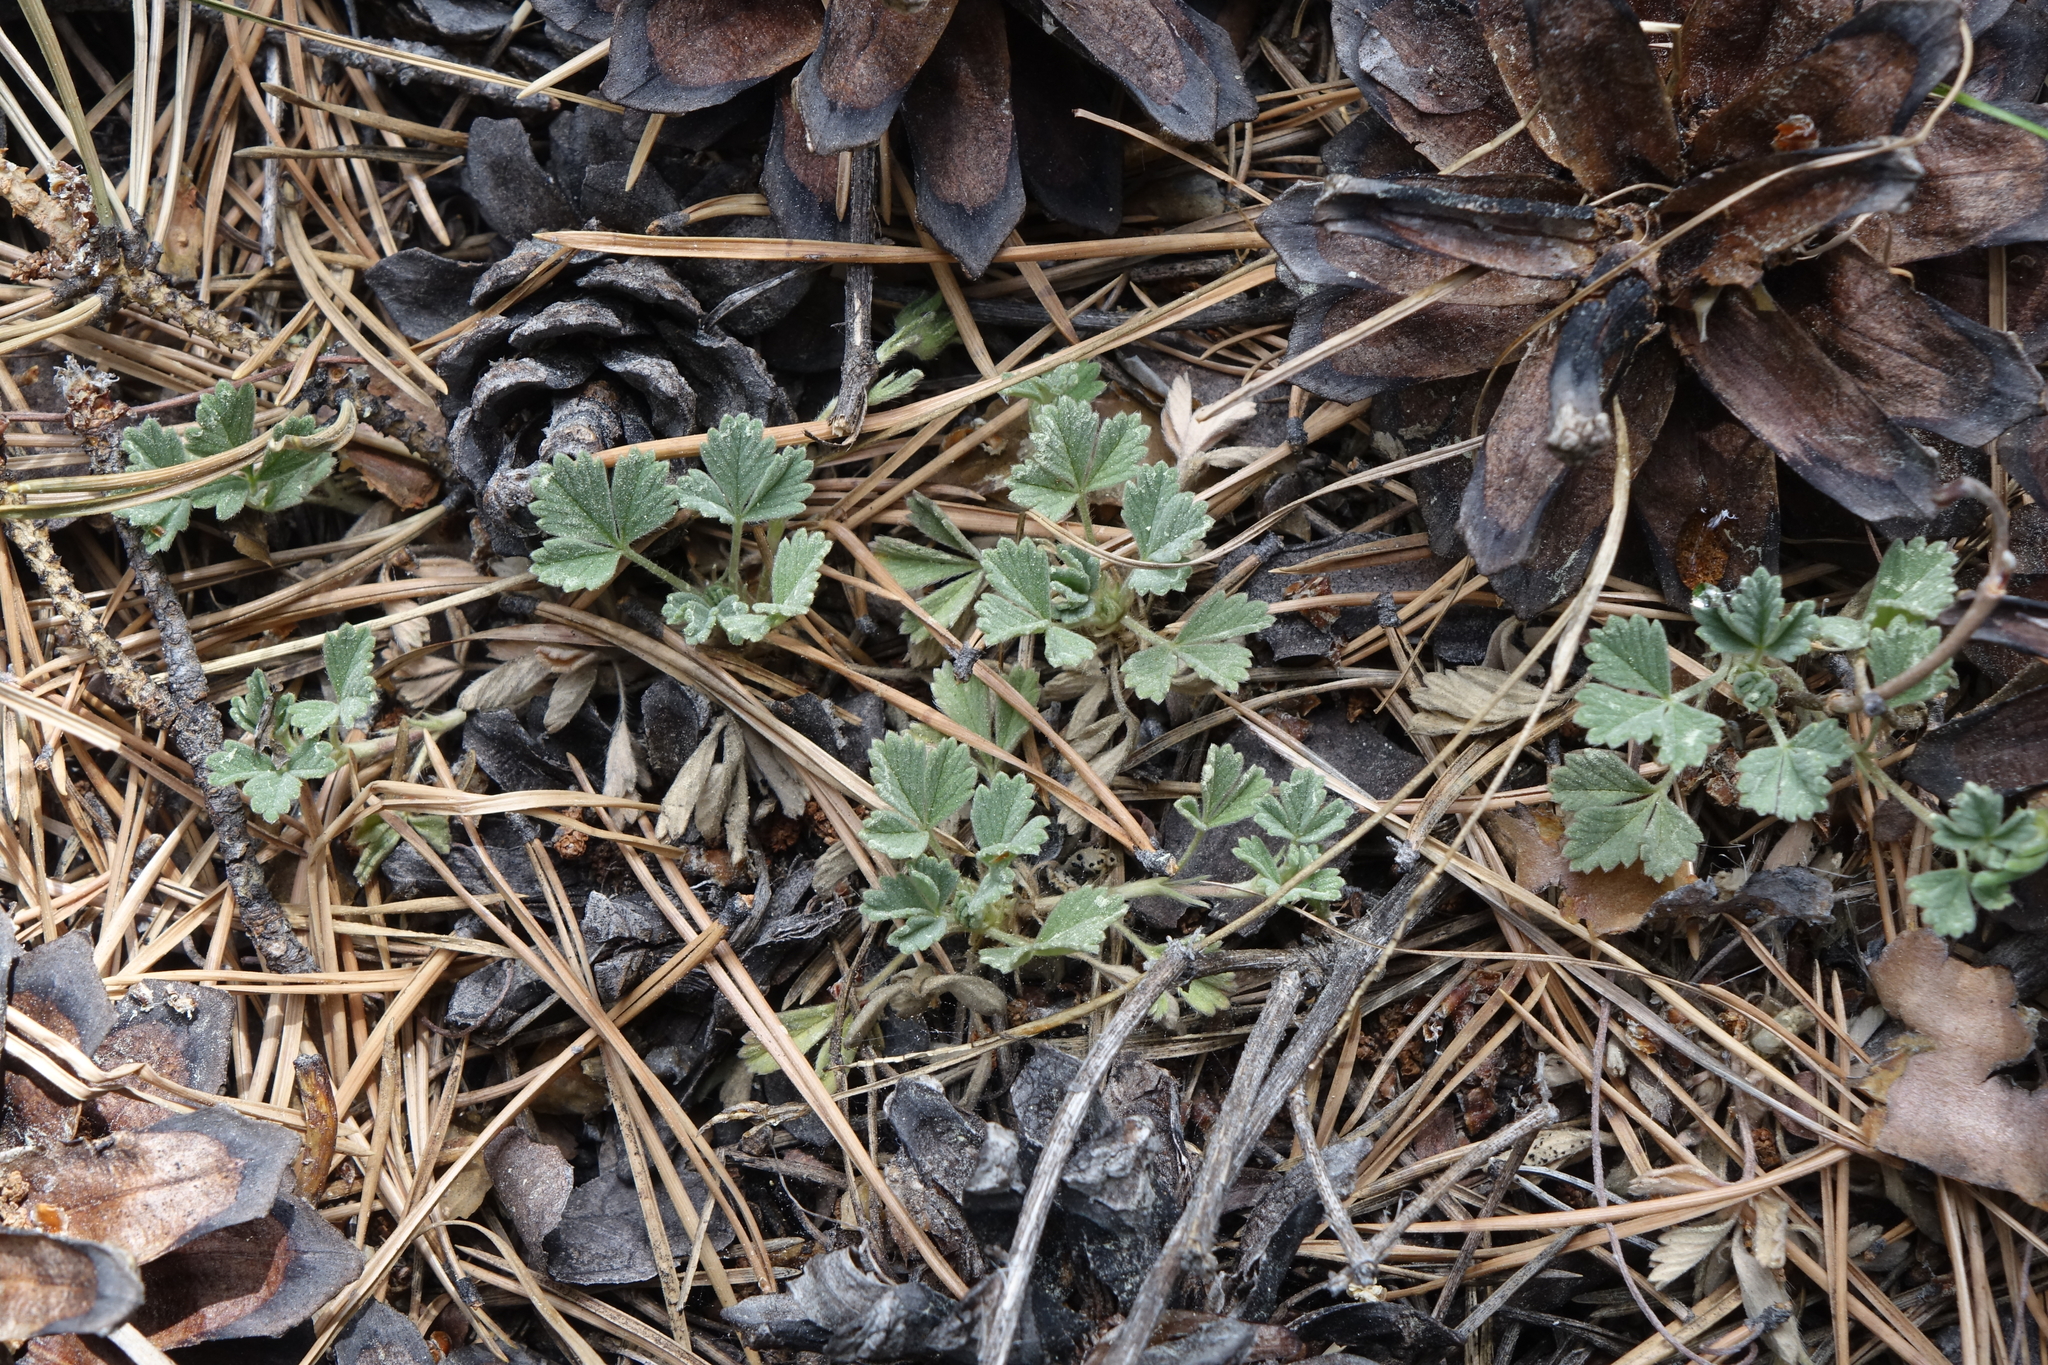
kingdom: Plantae
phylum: Tracheophyta
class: Magnoliopsida
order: Rosales
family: Rosaceae
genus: Potentilla
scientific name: Potentilla acaulis
